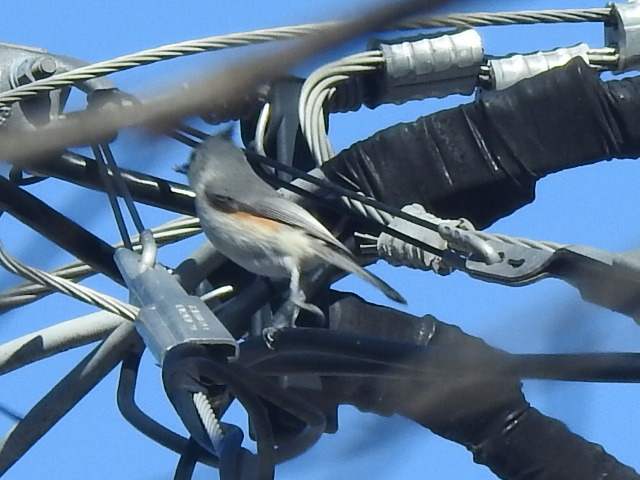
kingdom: Animalia
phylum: Chordata
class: Aves
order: Passeriformes
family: Paridae
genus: Baeolophus
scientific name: Baeolophus bicolor
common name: Tufted titmouse
